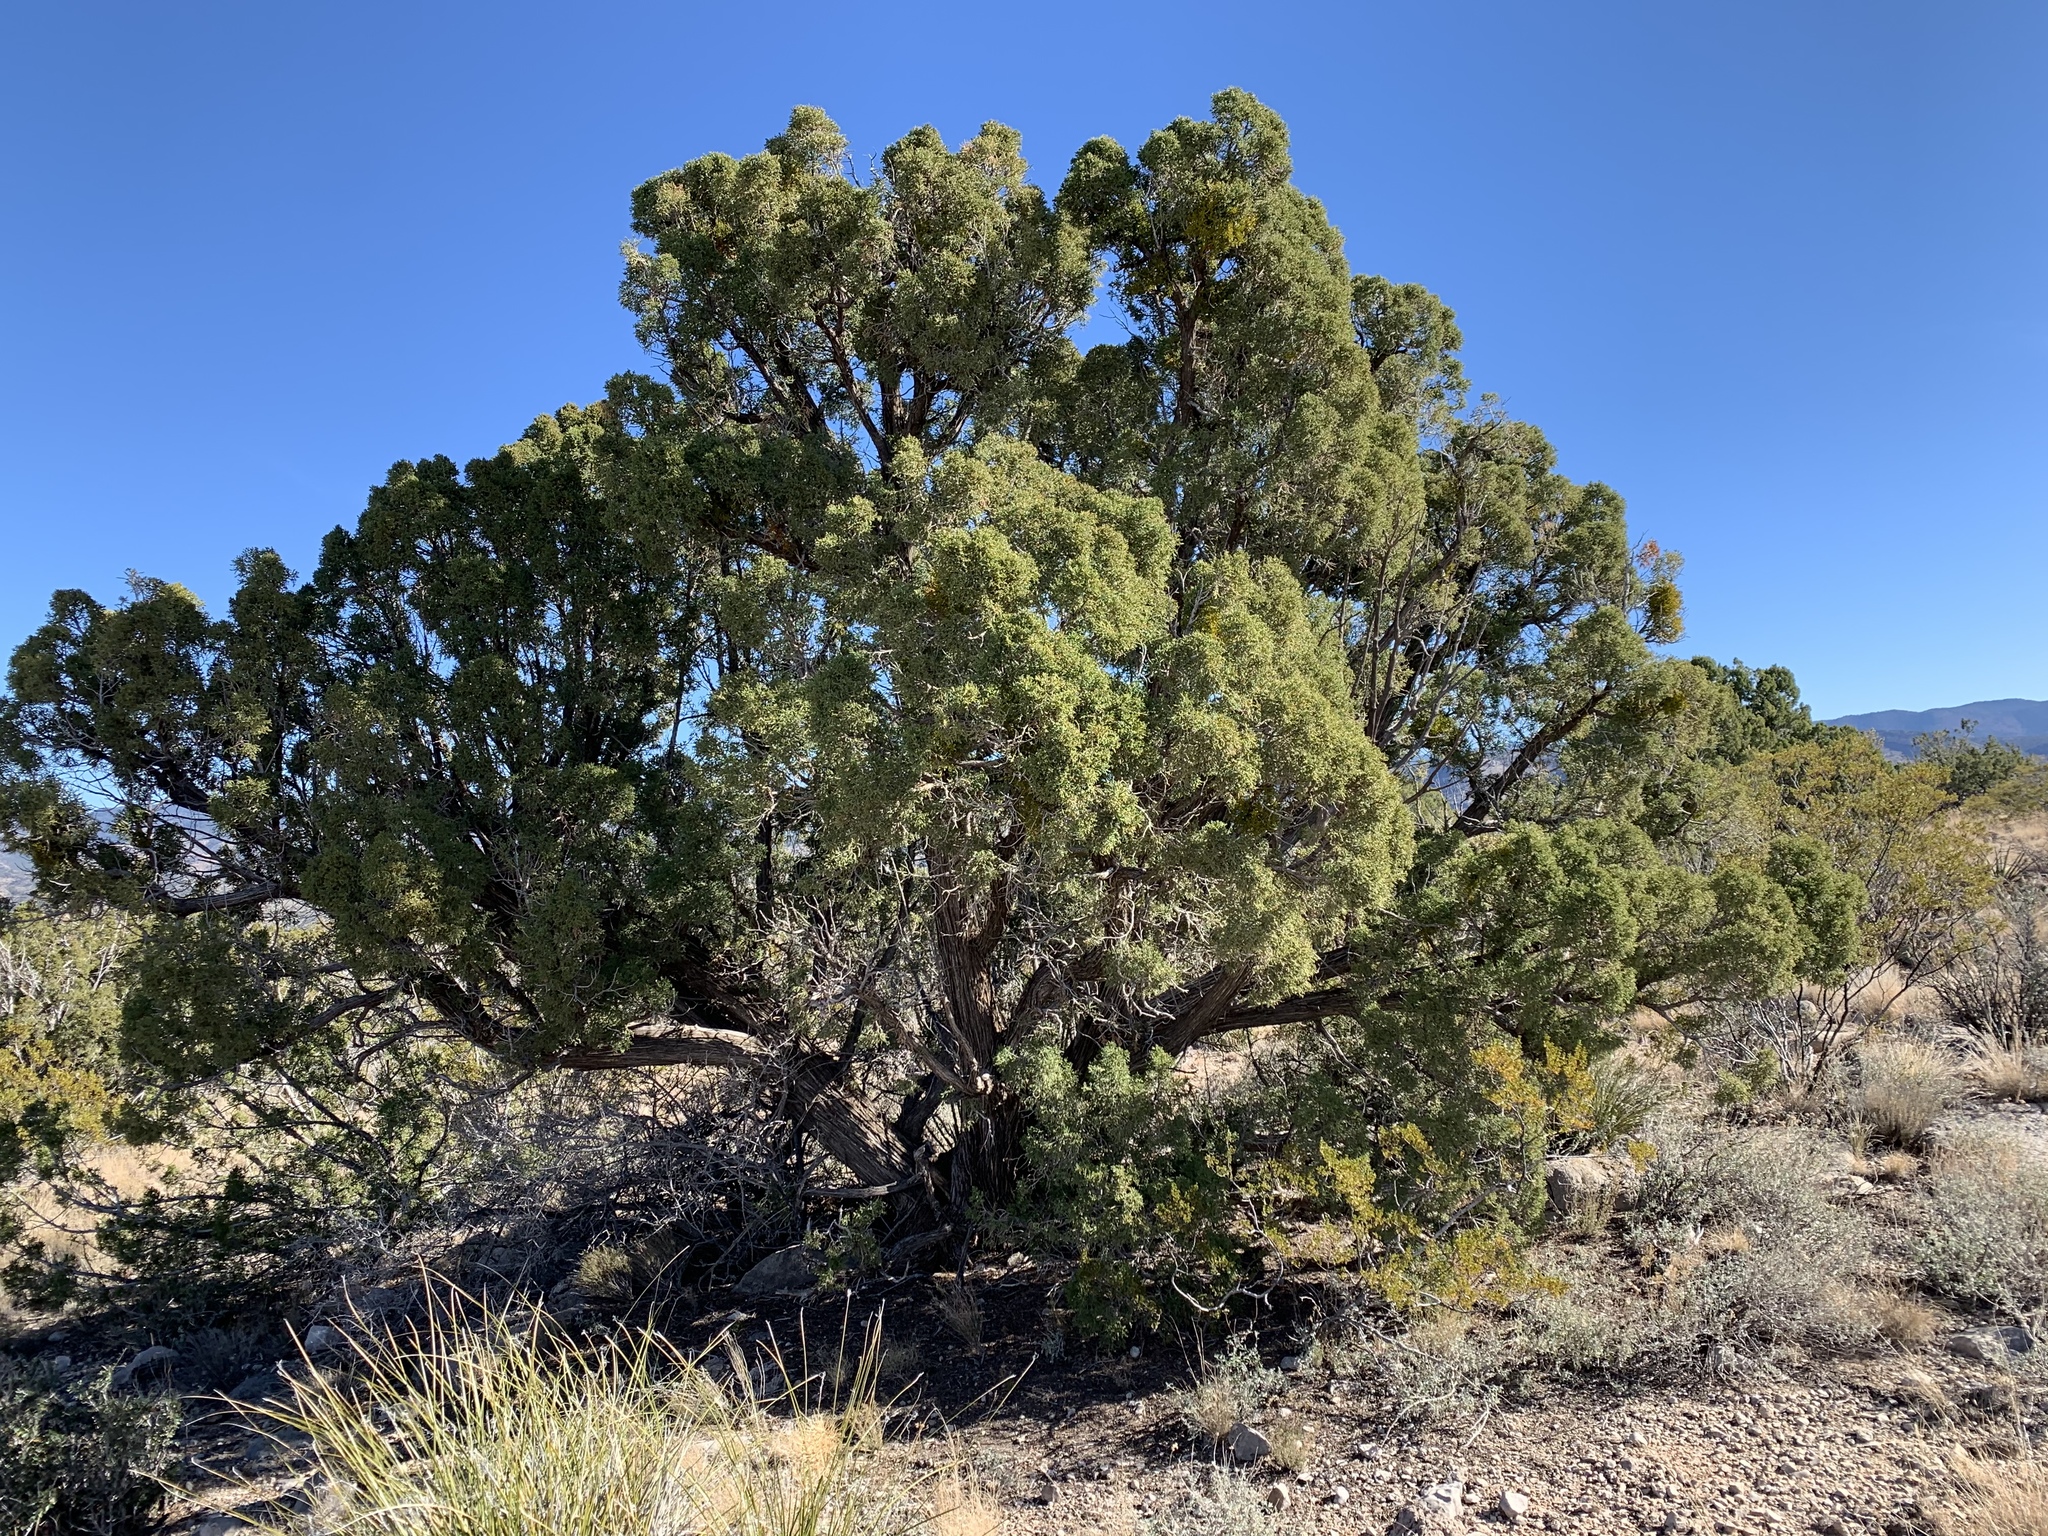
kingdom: Plantae
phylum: Tracheophyta
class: Pinopsida
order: Pinales
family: Cupressaceae
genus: Juniperus
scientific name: Juniperus monosperma
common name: One-seed juniper
